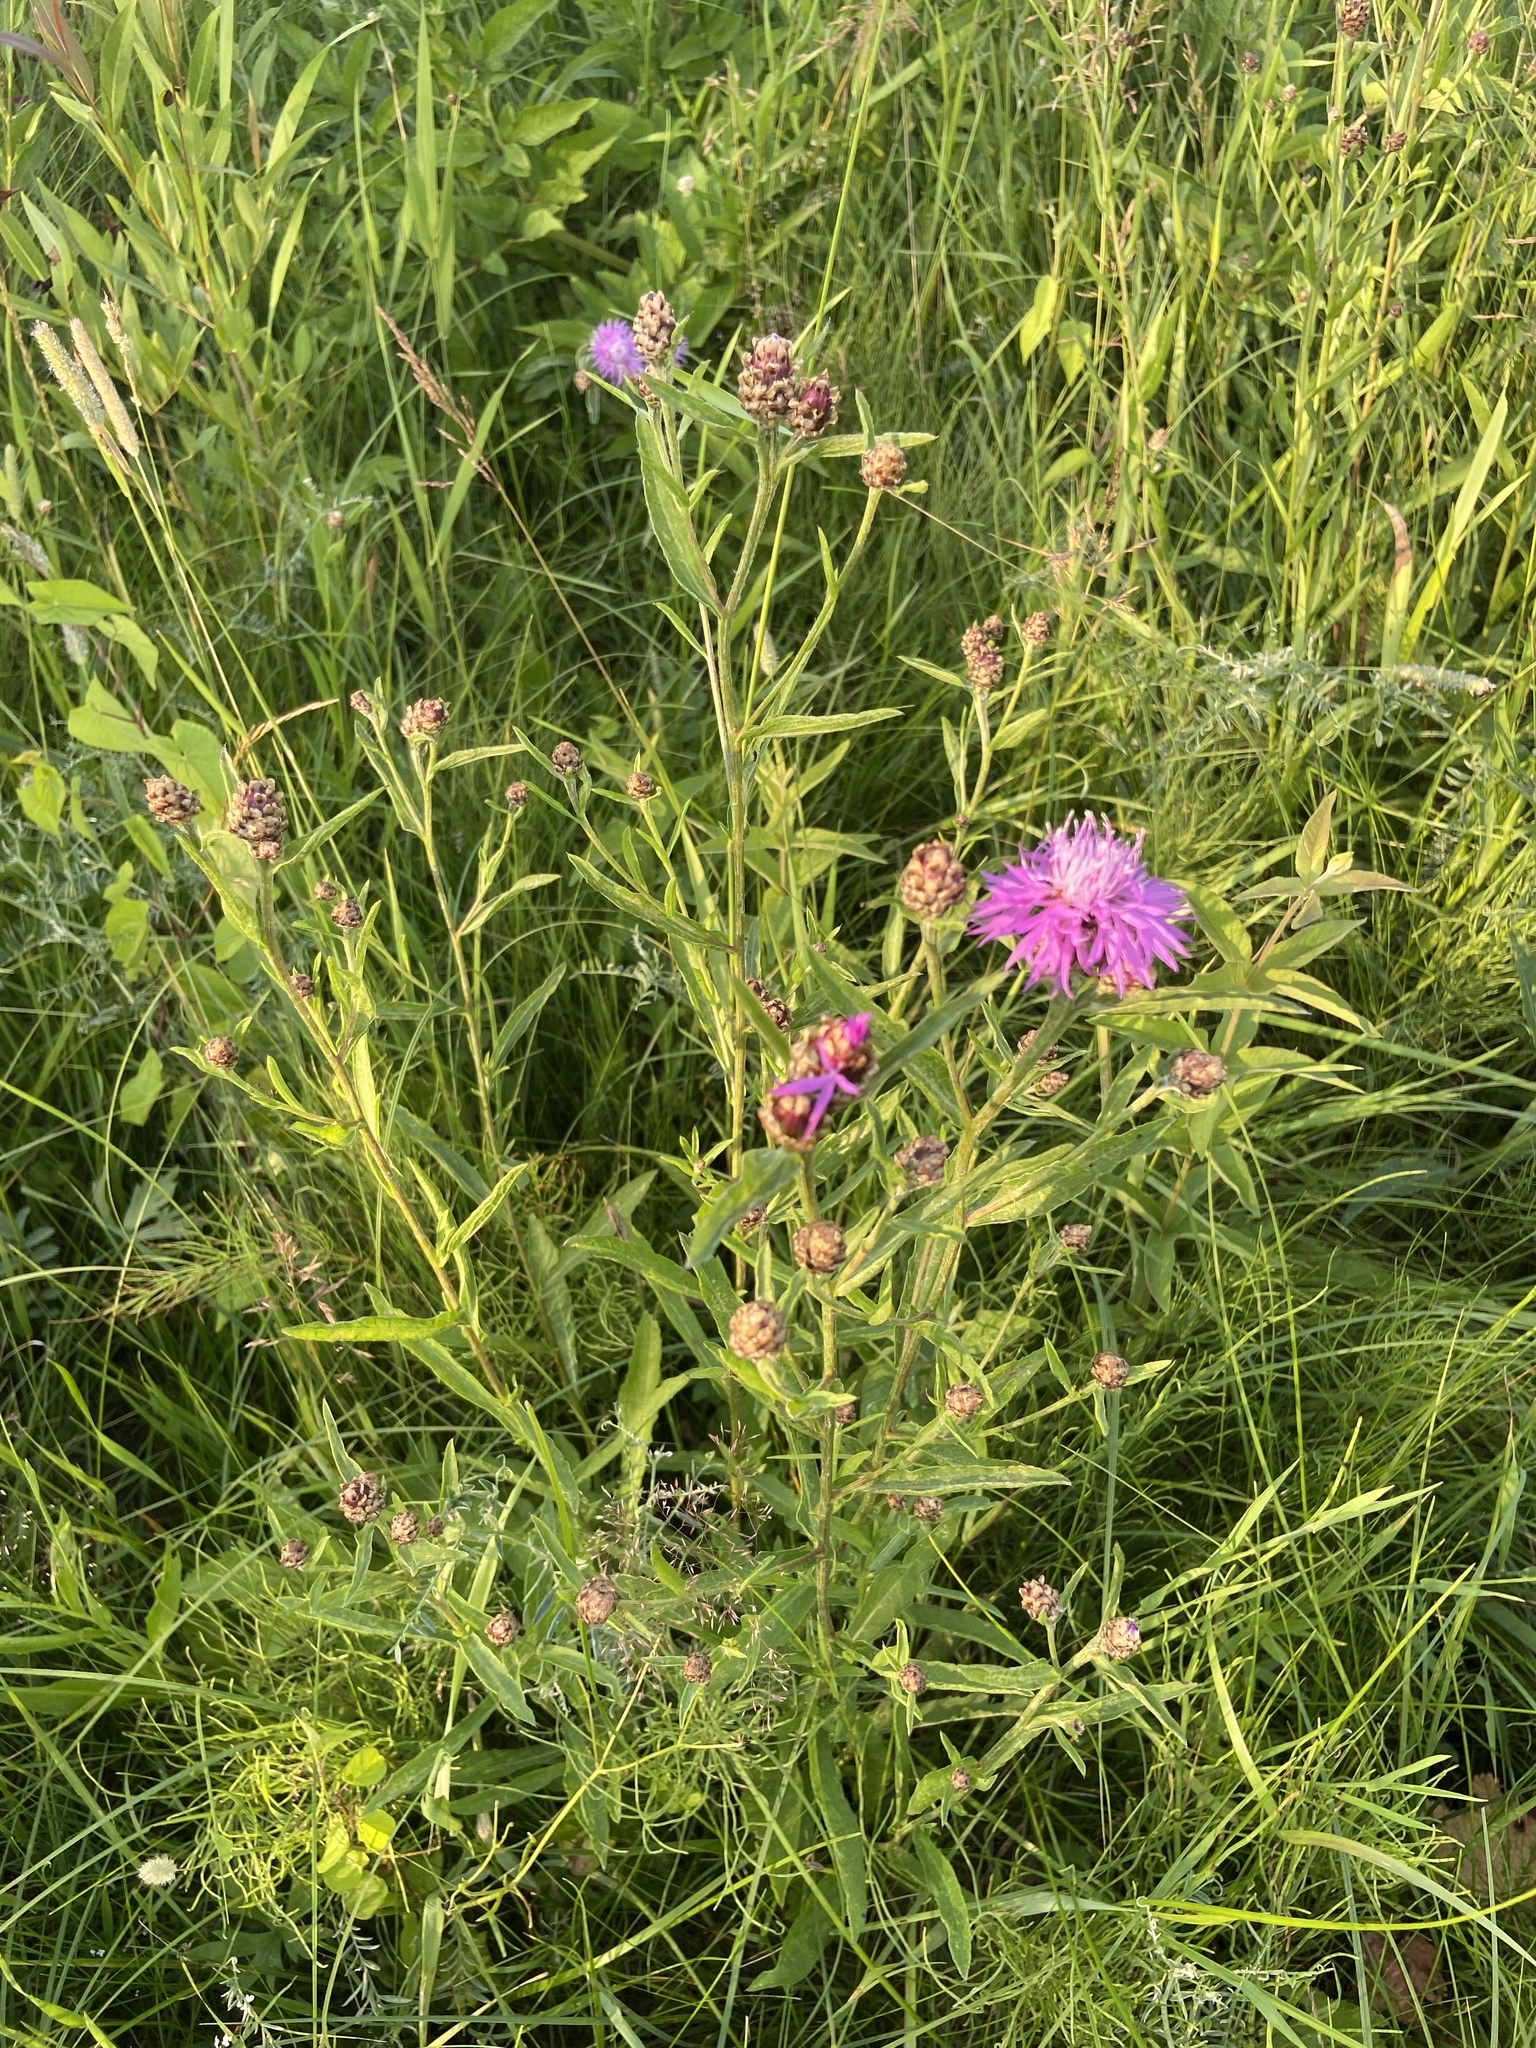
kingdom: Plantae
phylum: Tracheophyta
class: Magnoliopsida
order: Asterales
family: Asteraceae
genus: Centaurea
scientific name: Centaurea jacea
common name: Brown knapweed
